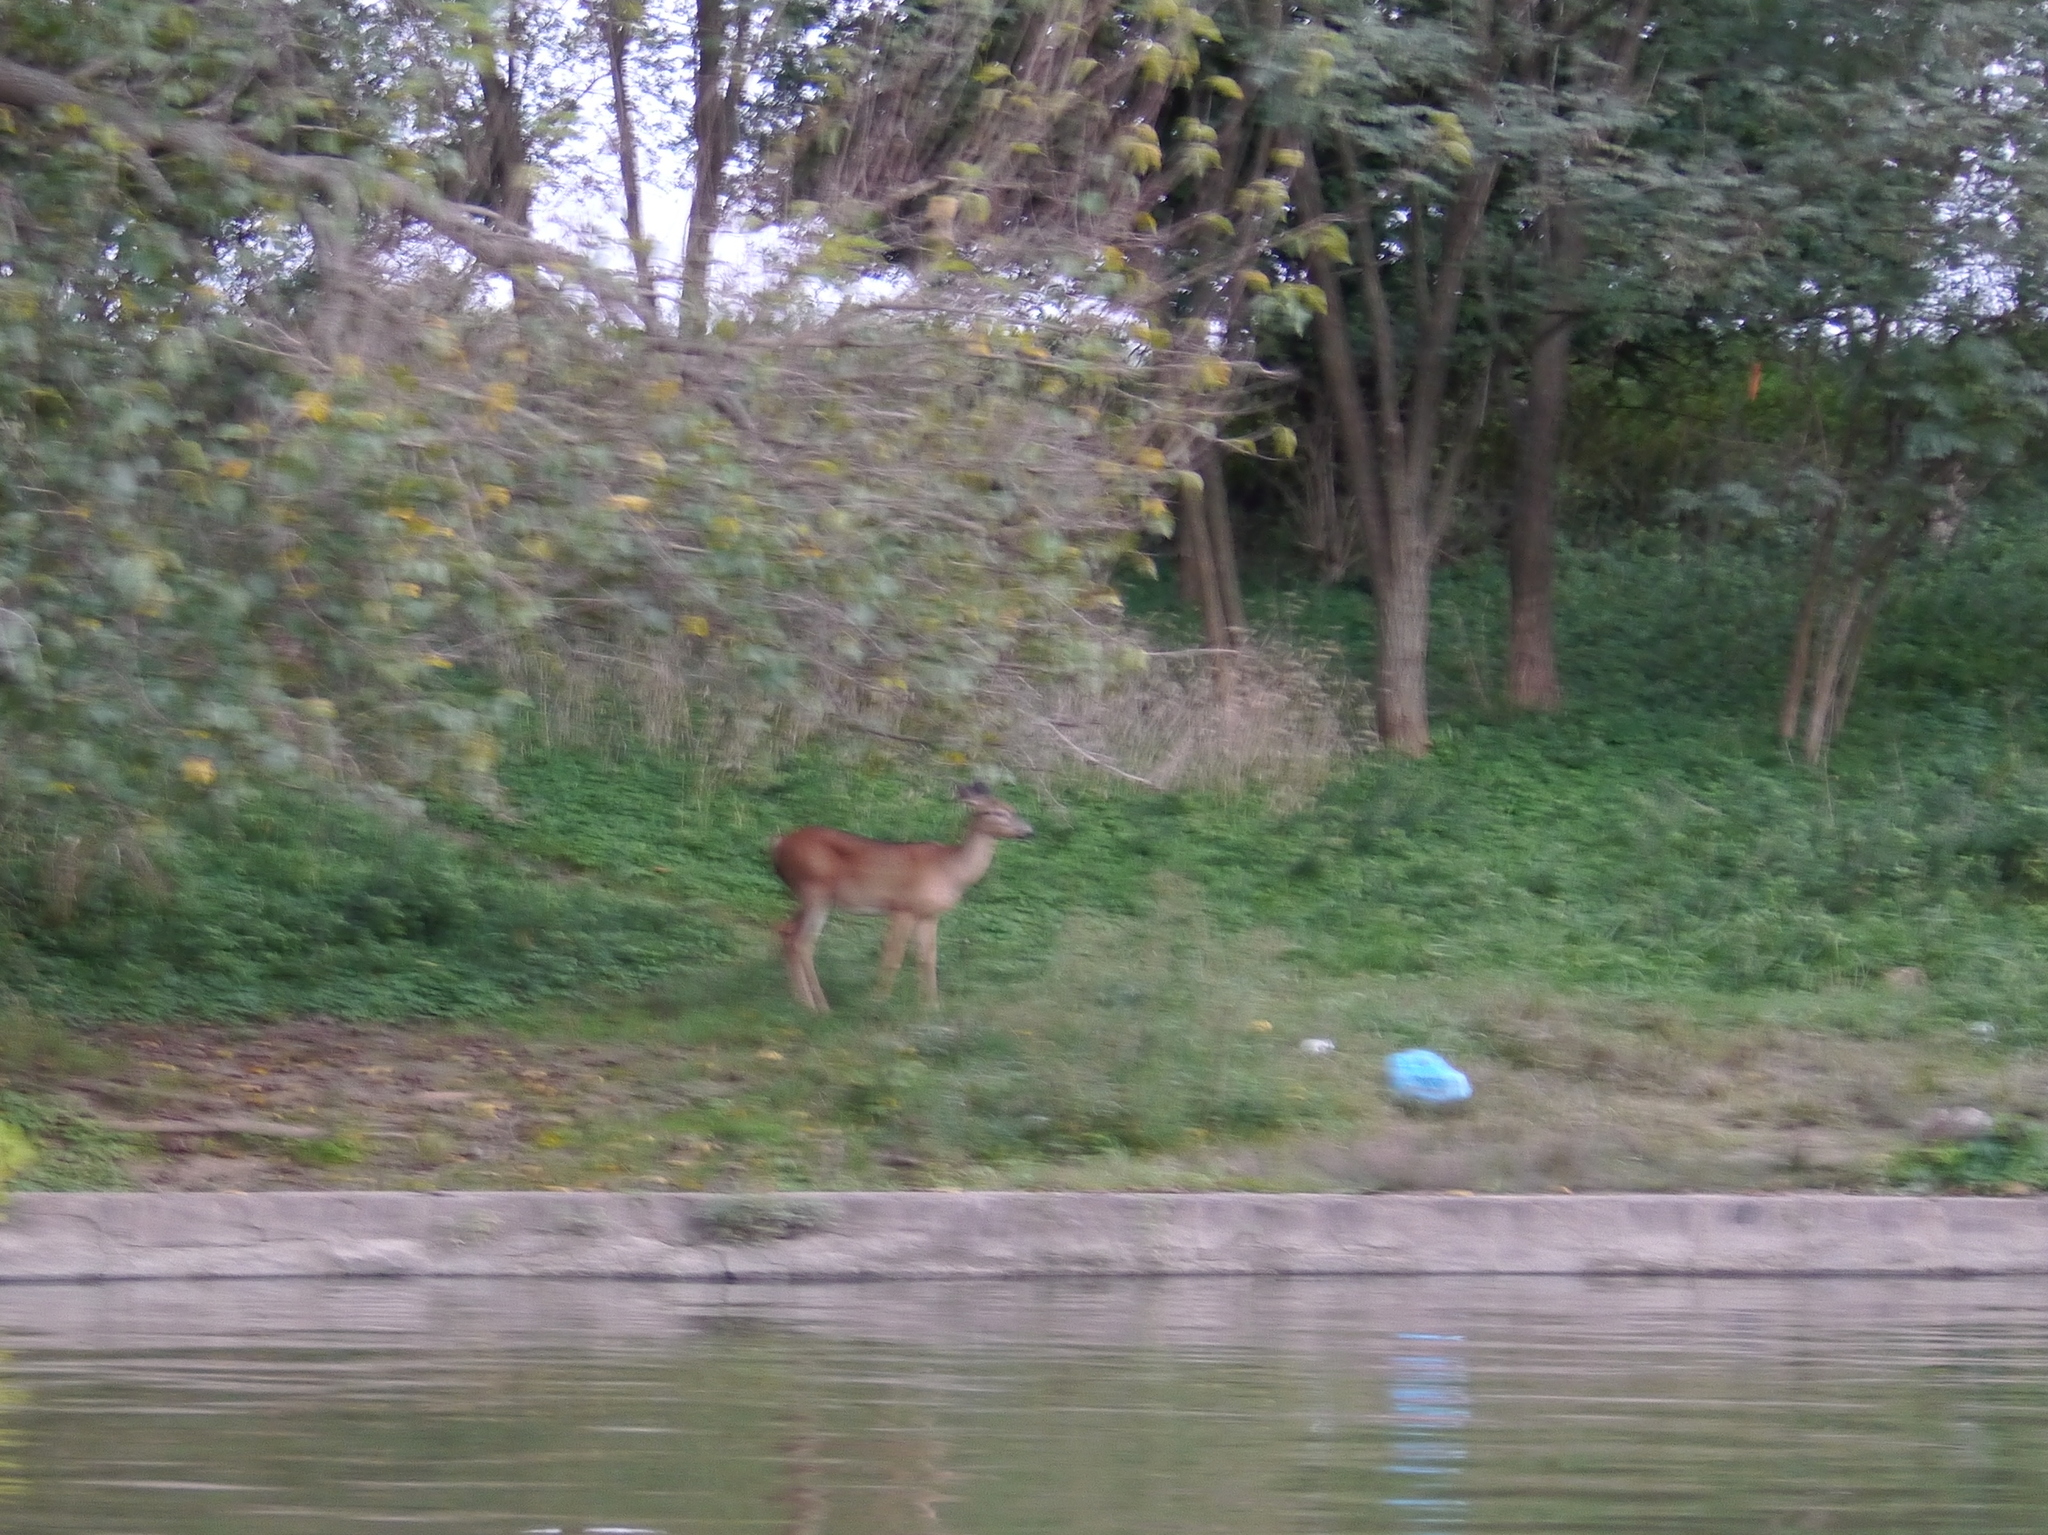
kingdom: Animalia
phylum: Chordata
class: Mammalia
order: Artiodactyla
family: Cervidae
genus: Odocoileus
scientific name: Odocoileus virginianus
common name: White-tailed deer
